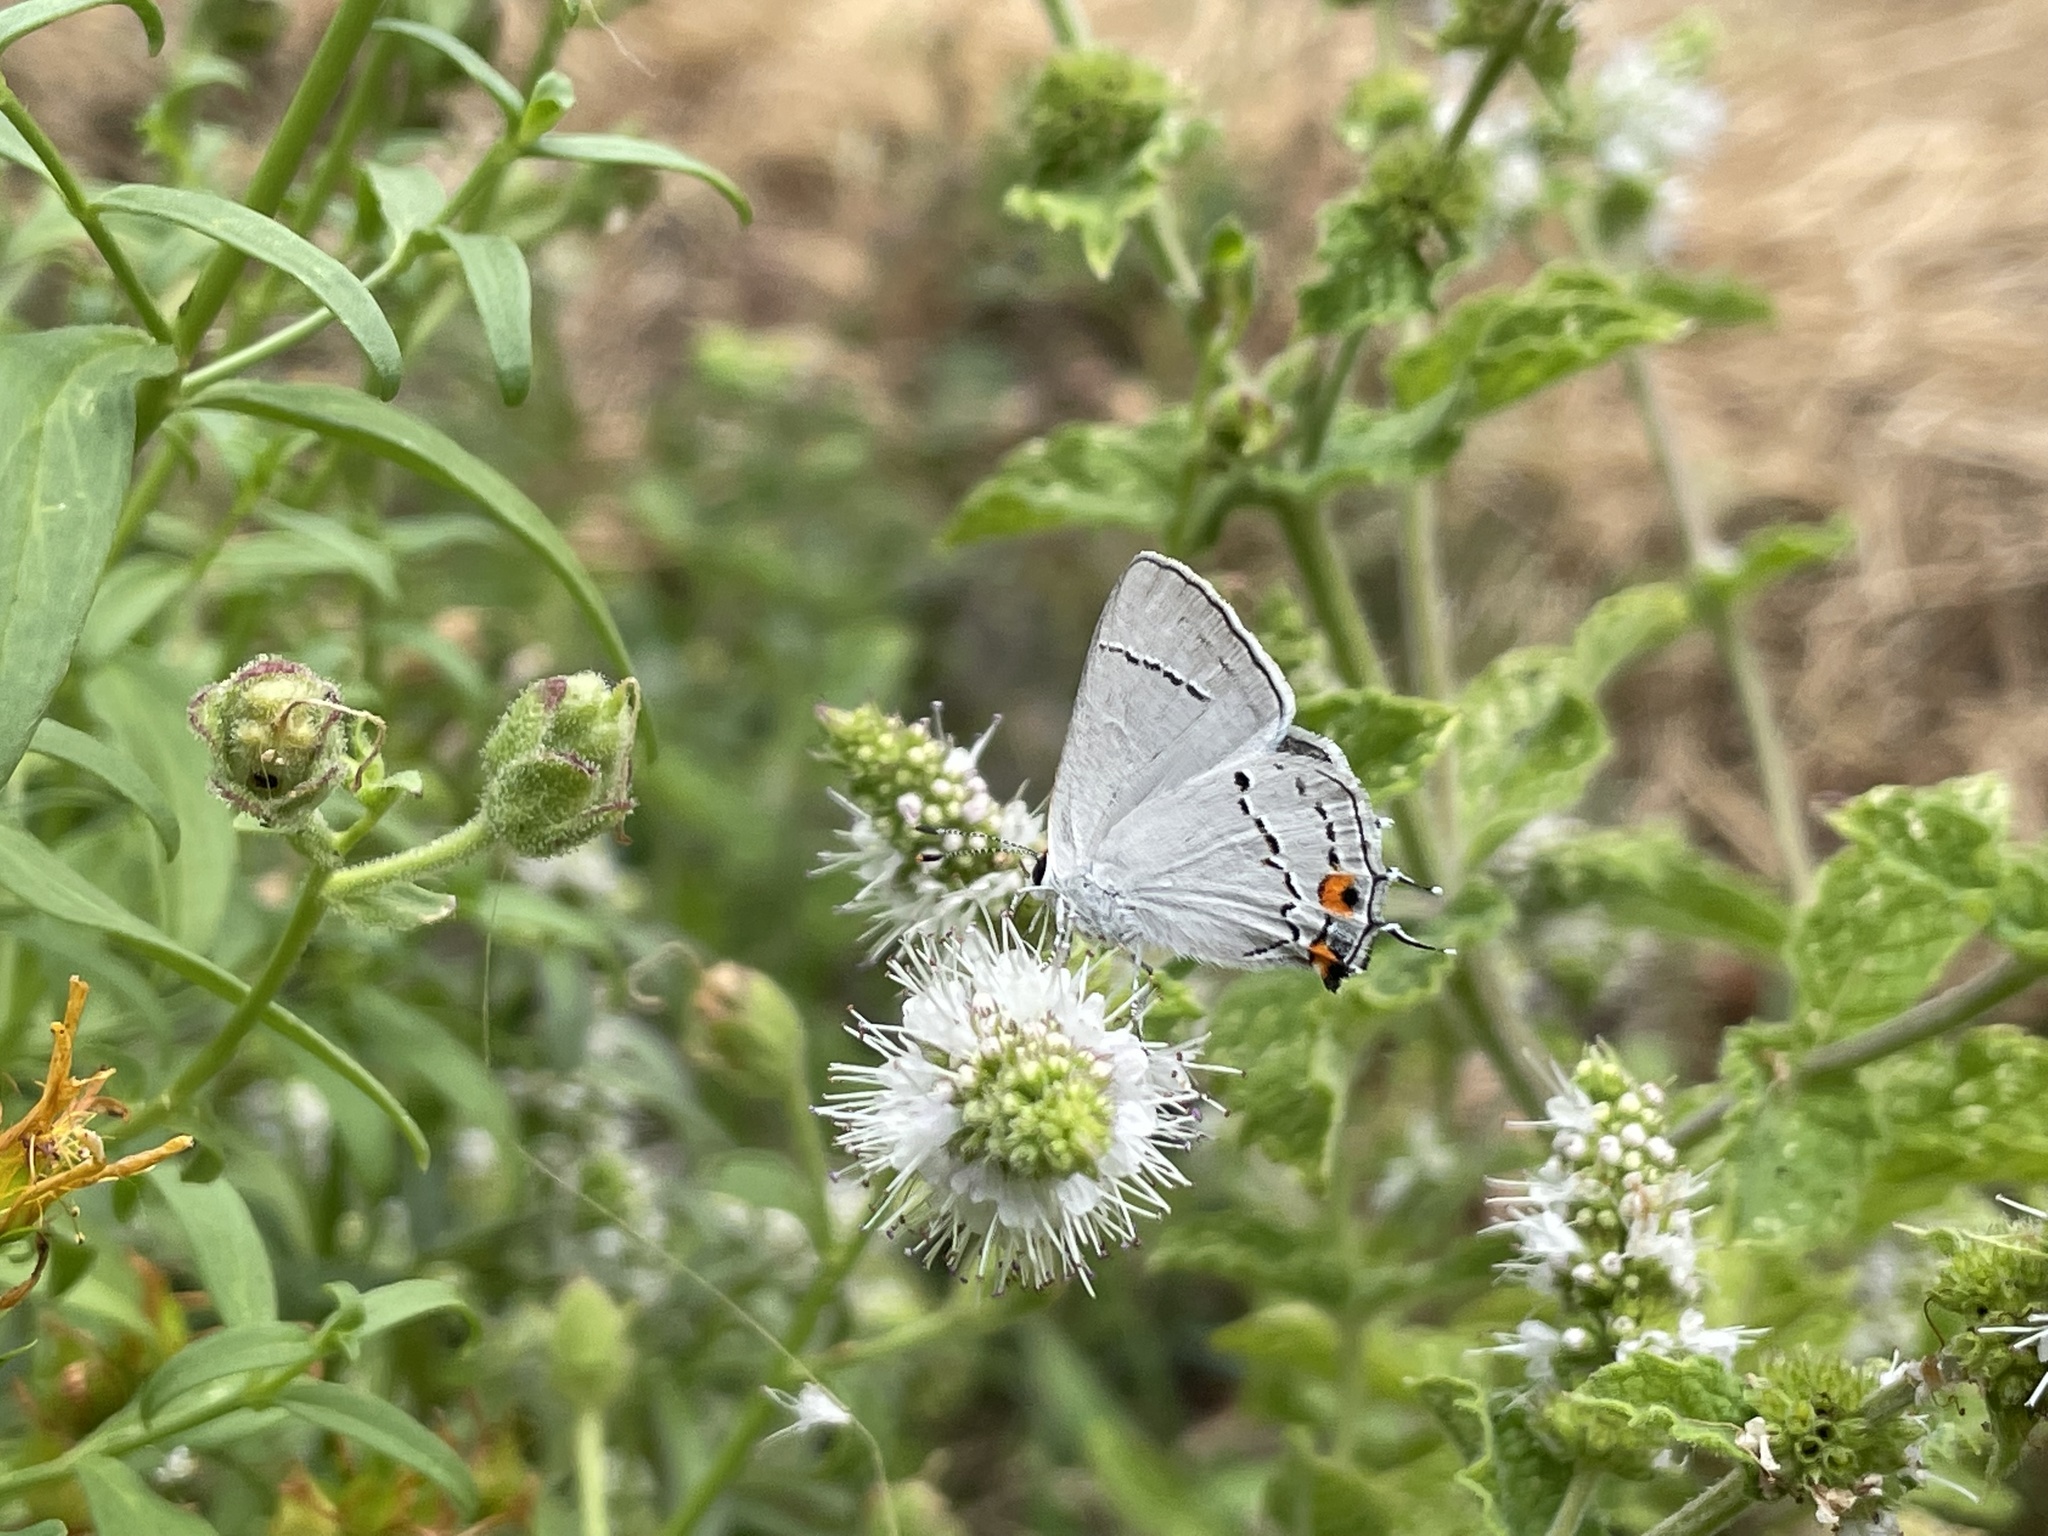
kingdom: Animalia
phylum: Arthropoda
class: Insecta
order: Lepidoptera
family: Lycaenidae
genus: Strymon
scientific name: Strymon melinus
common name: Gray hairstreak
